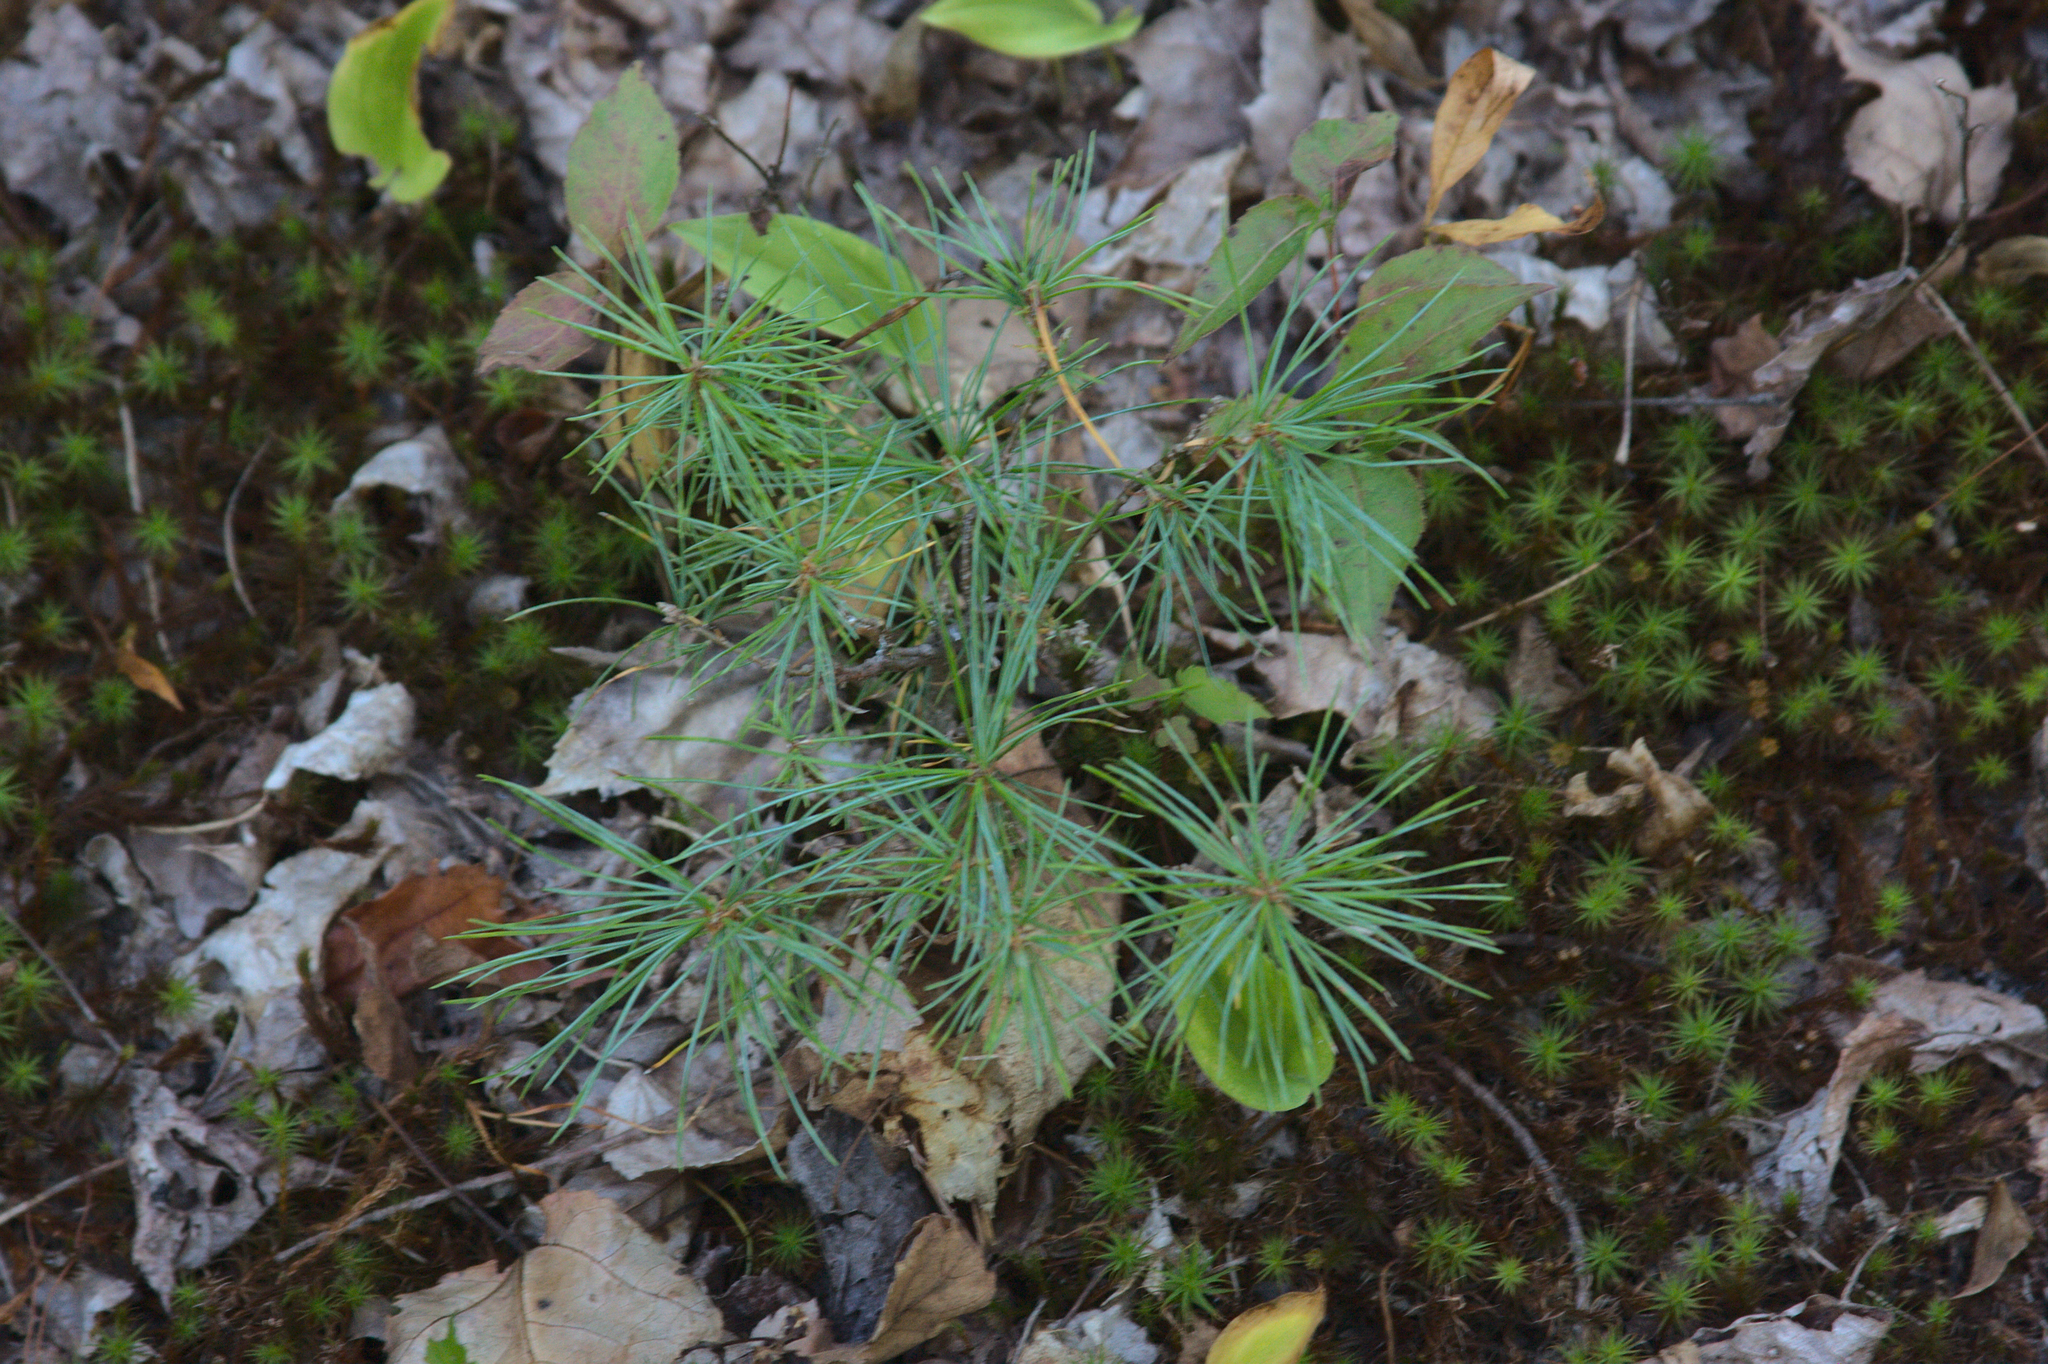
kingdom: Plantae
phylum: Tracheophyta
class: Pinopsida
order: Pinales
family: Pinaceae
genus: Pinus
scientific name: Pinus strobus
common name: Weymouth pine
